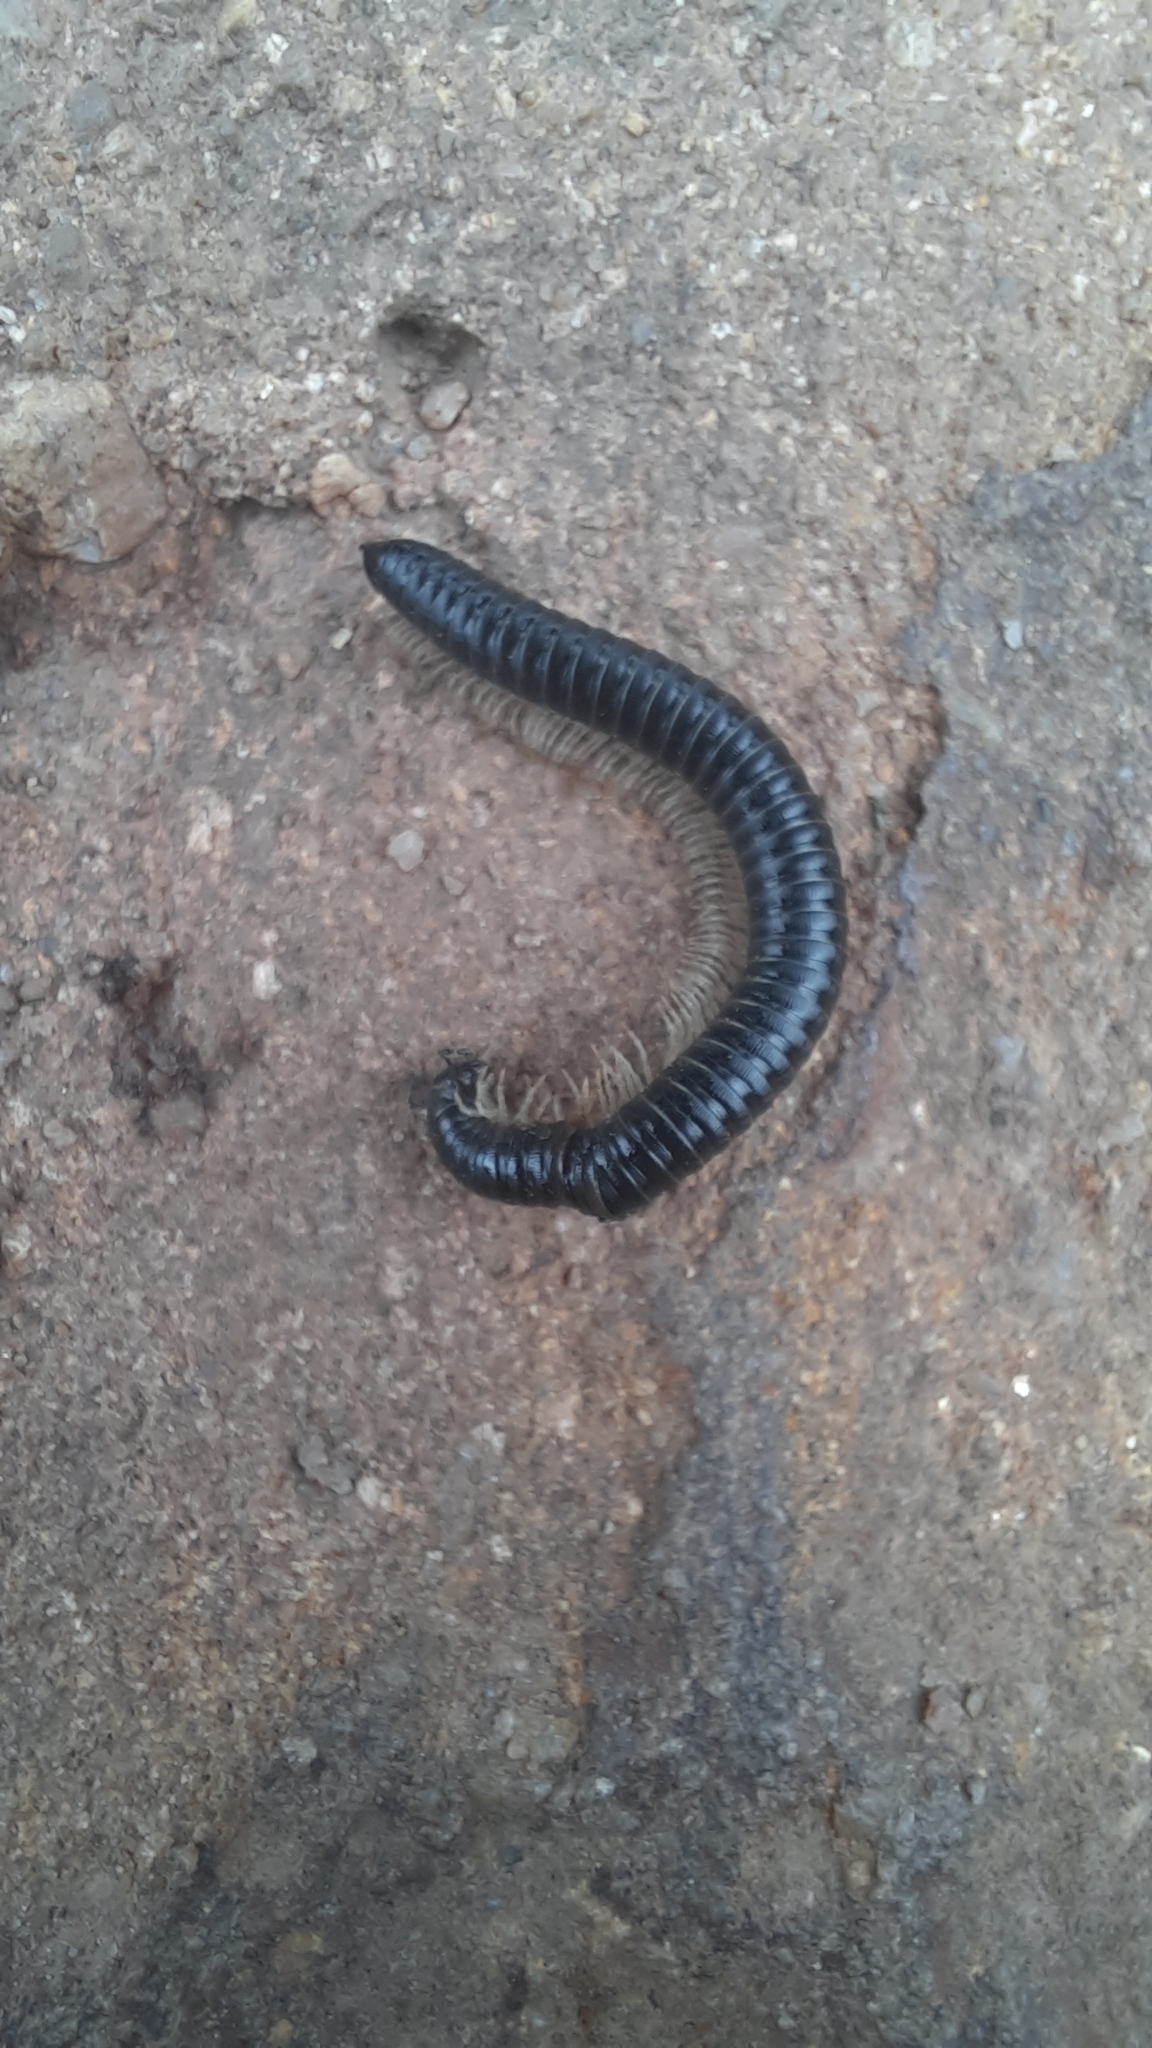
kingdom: Animalia
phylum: Arthropoda
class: Diplopoda
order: Julida
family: Julidae
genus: Tachypodoiulus
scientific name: Tachypodoiulus niger
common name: White-legged snake millipede
